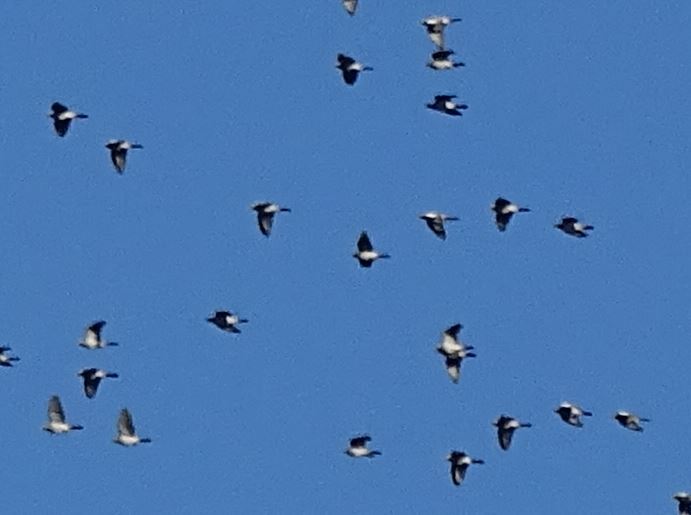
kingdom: Animalia
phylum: Chordata
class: Aves
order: Columbiformes
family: Columbidae
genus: Columba
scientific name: Columba palumbus
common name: Common wood pigeon
